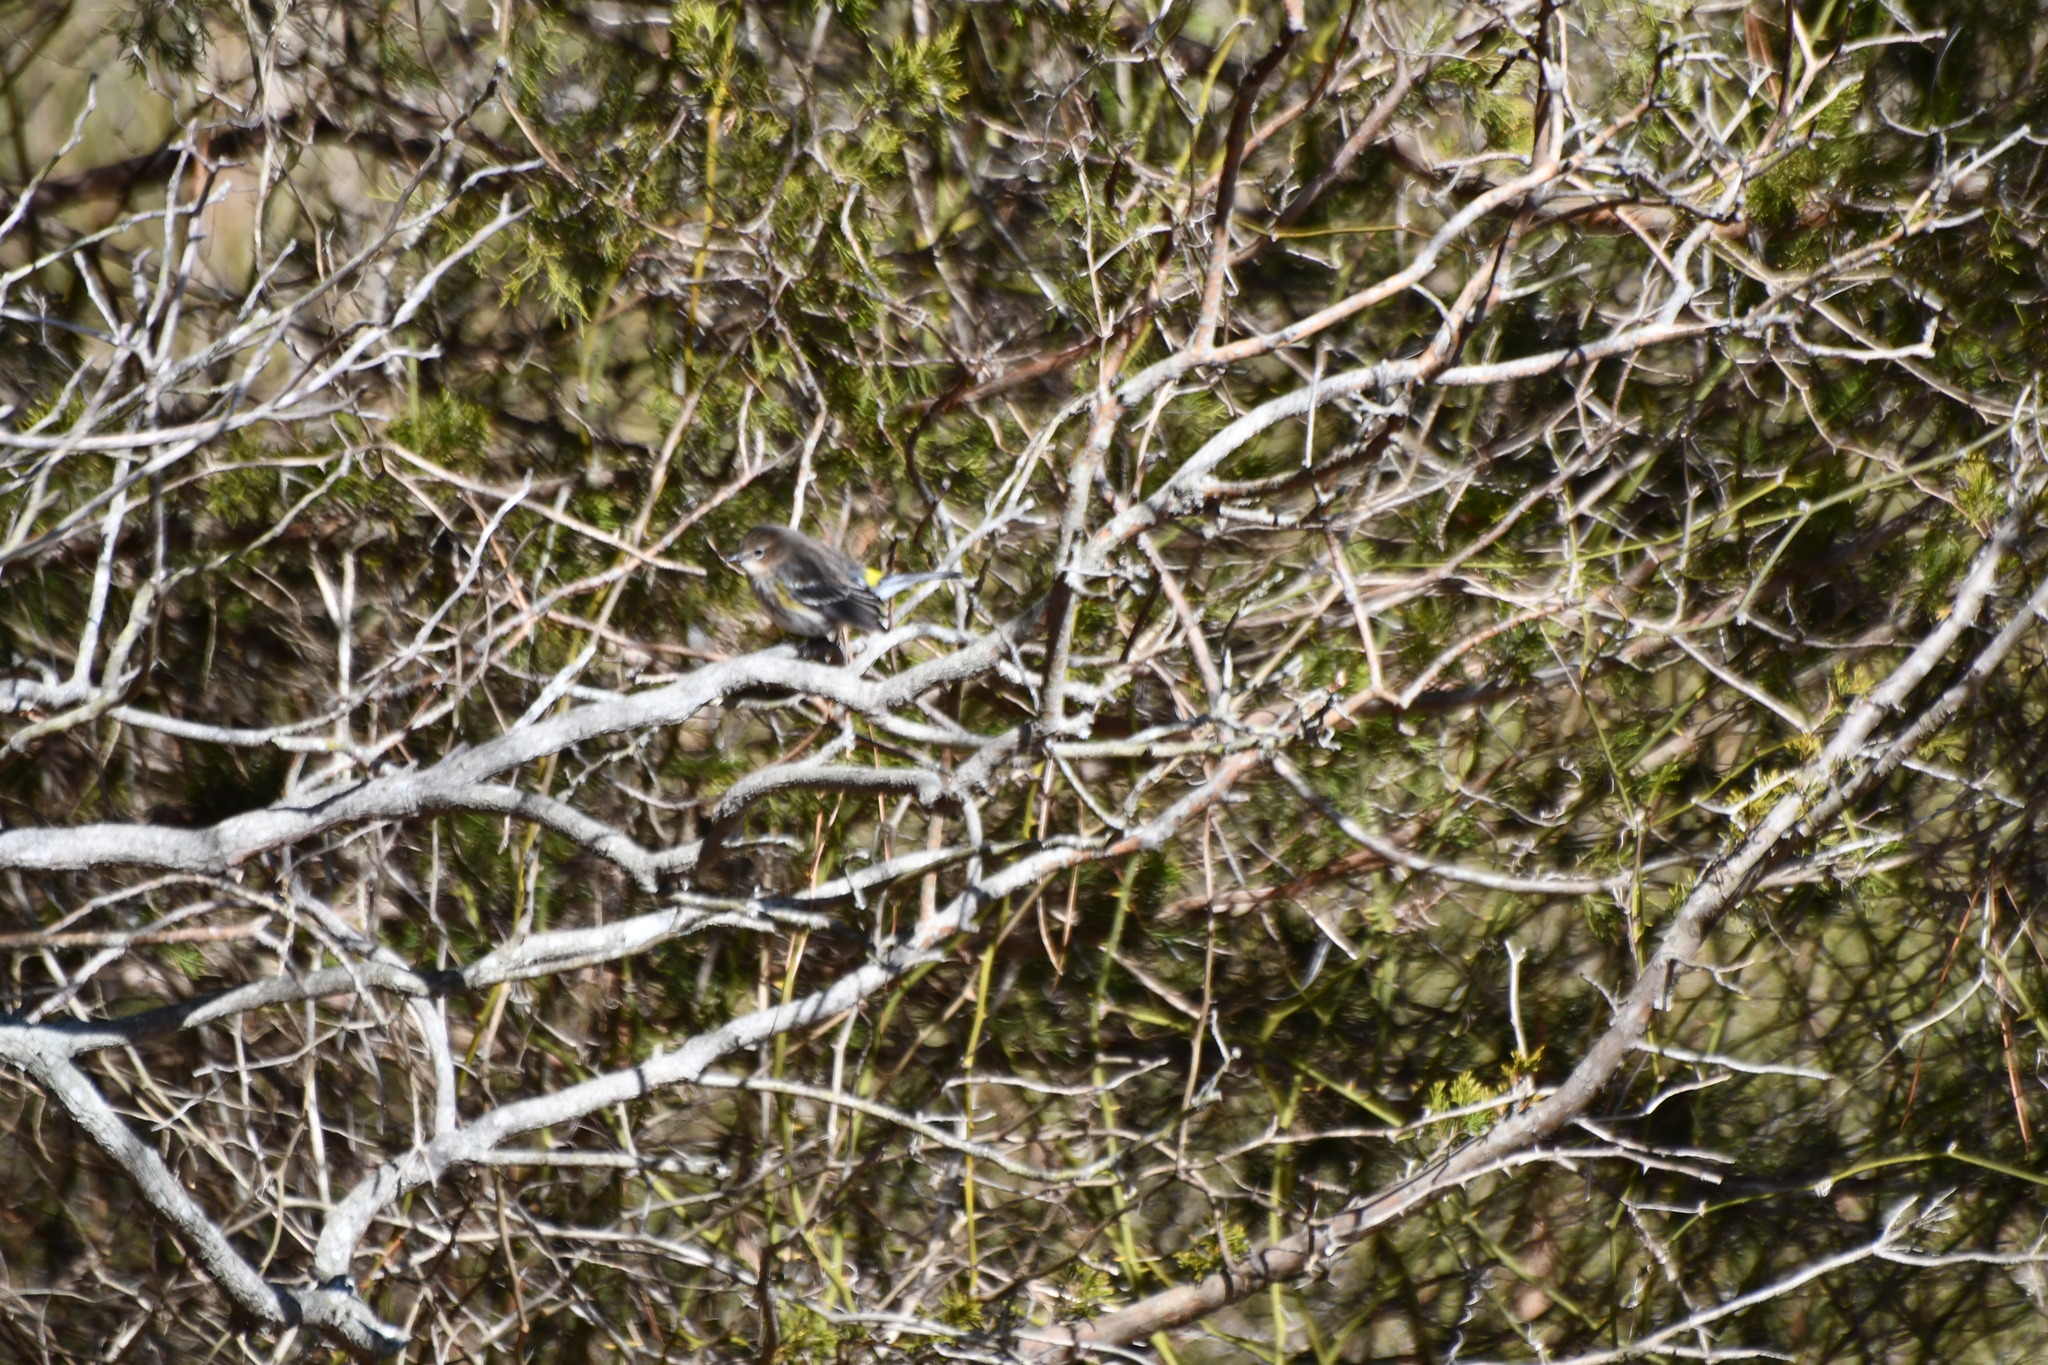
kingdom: Animalia
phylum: Chordata
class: Aves
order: Passeriformes
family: Parulidae
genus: Setophaga
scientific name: Setophaga coronata
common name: Myrtle warbler
